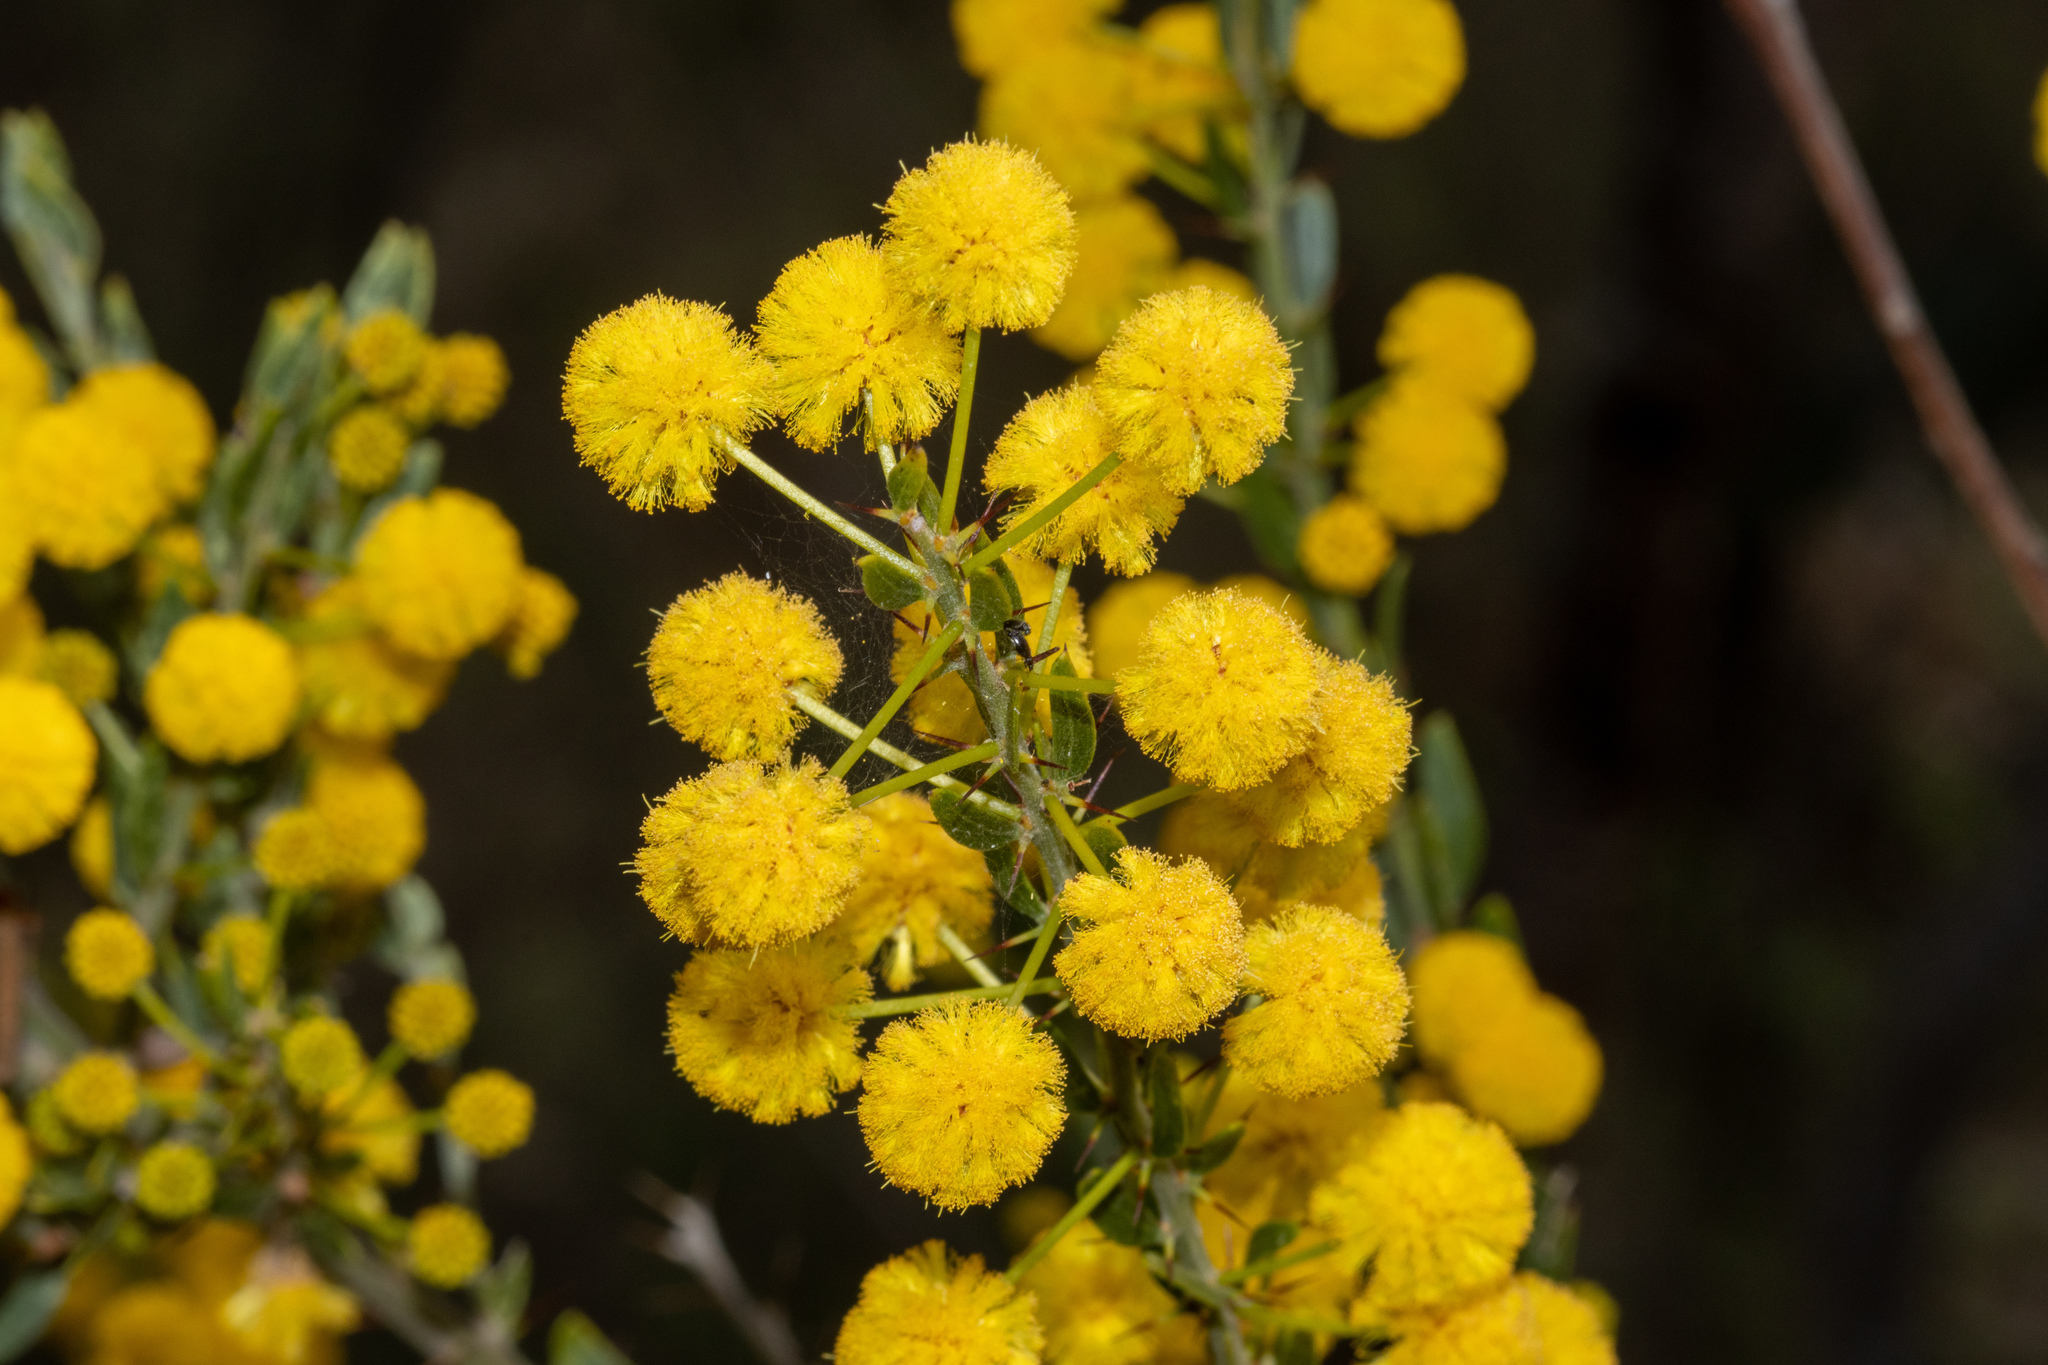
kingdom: Plantae
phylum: Tracheophyta
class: Magnoliopsida
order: Fabales
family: Fabaceae
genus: Acacia
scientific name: Acacia paradoxa
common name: Paradox acacia
